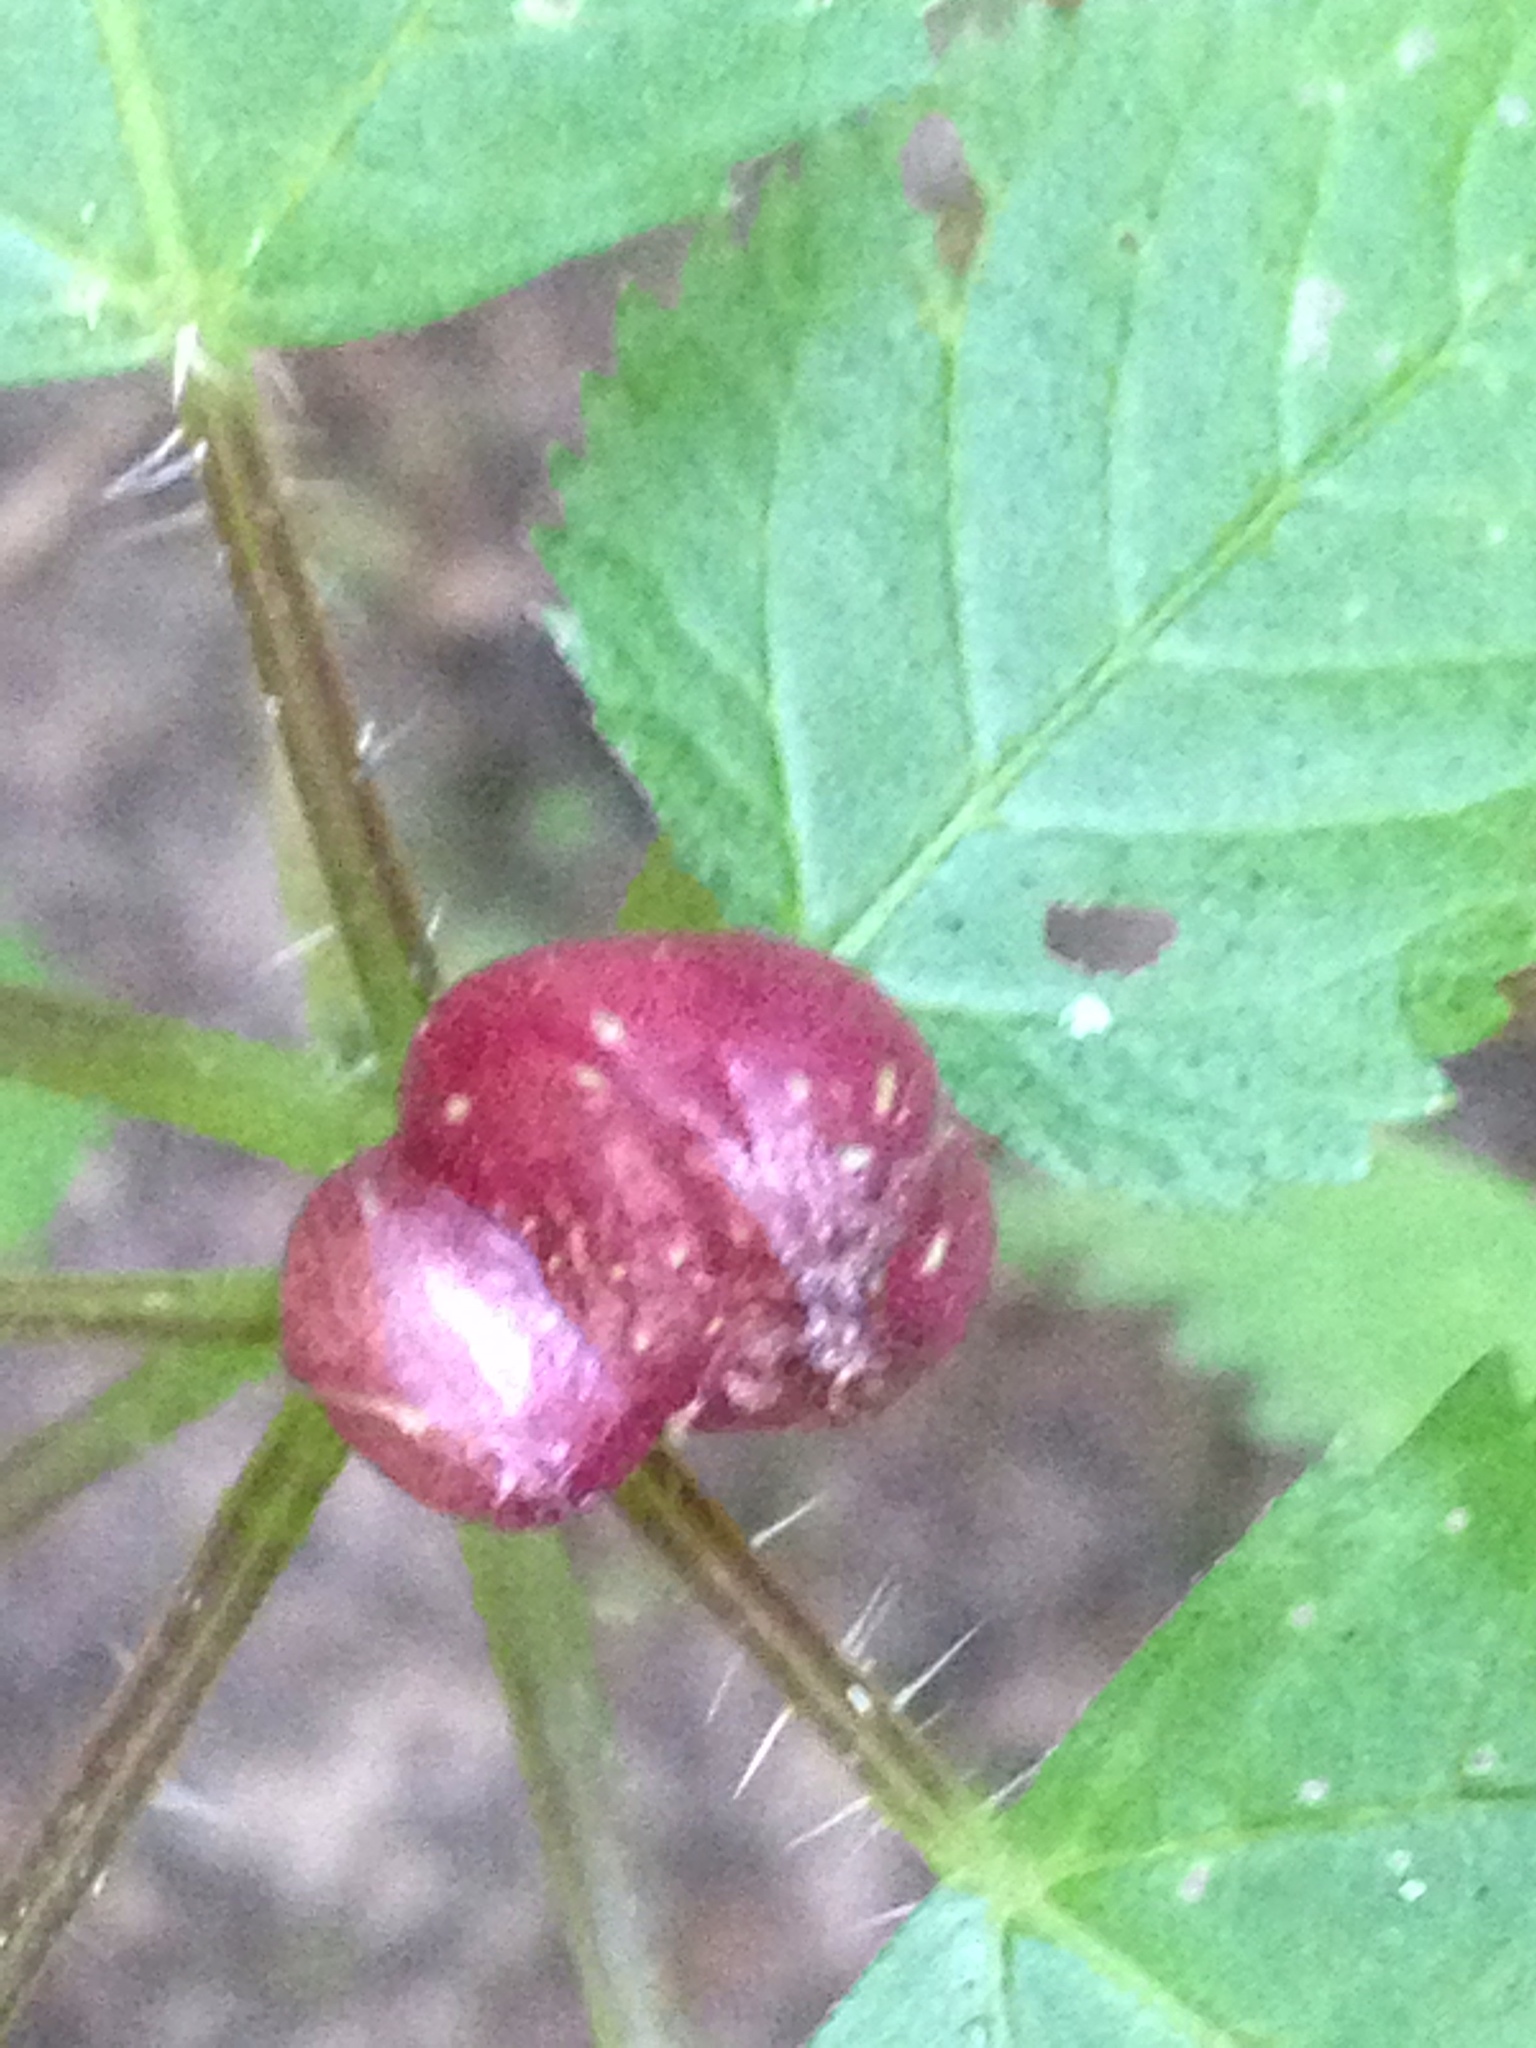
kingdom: Plantae
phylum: Tracheophyta
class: Magnoliopsida
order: Rosales
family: Urticaceae
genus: Laportea
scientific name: Laportea canadensis
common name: Canada nettle
